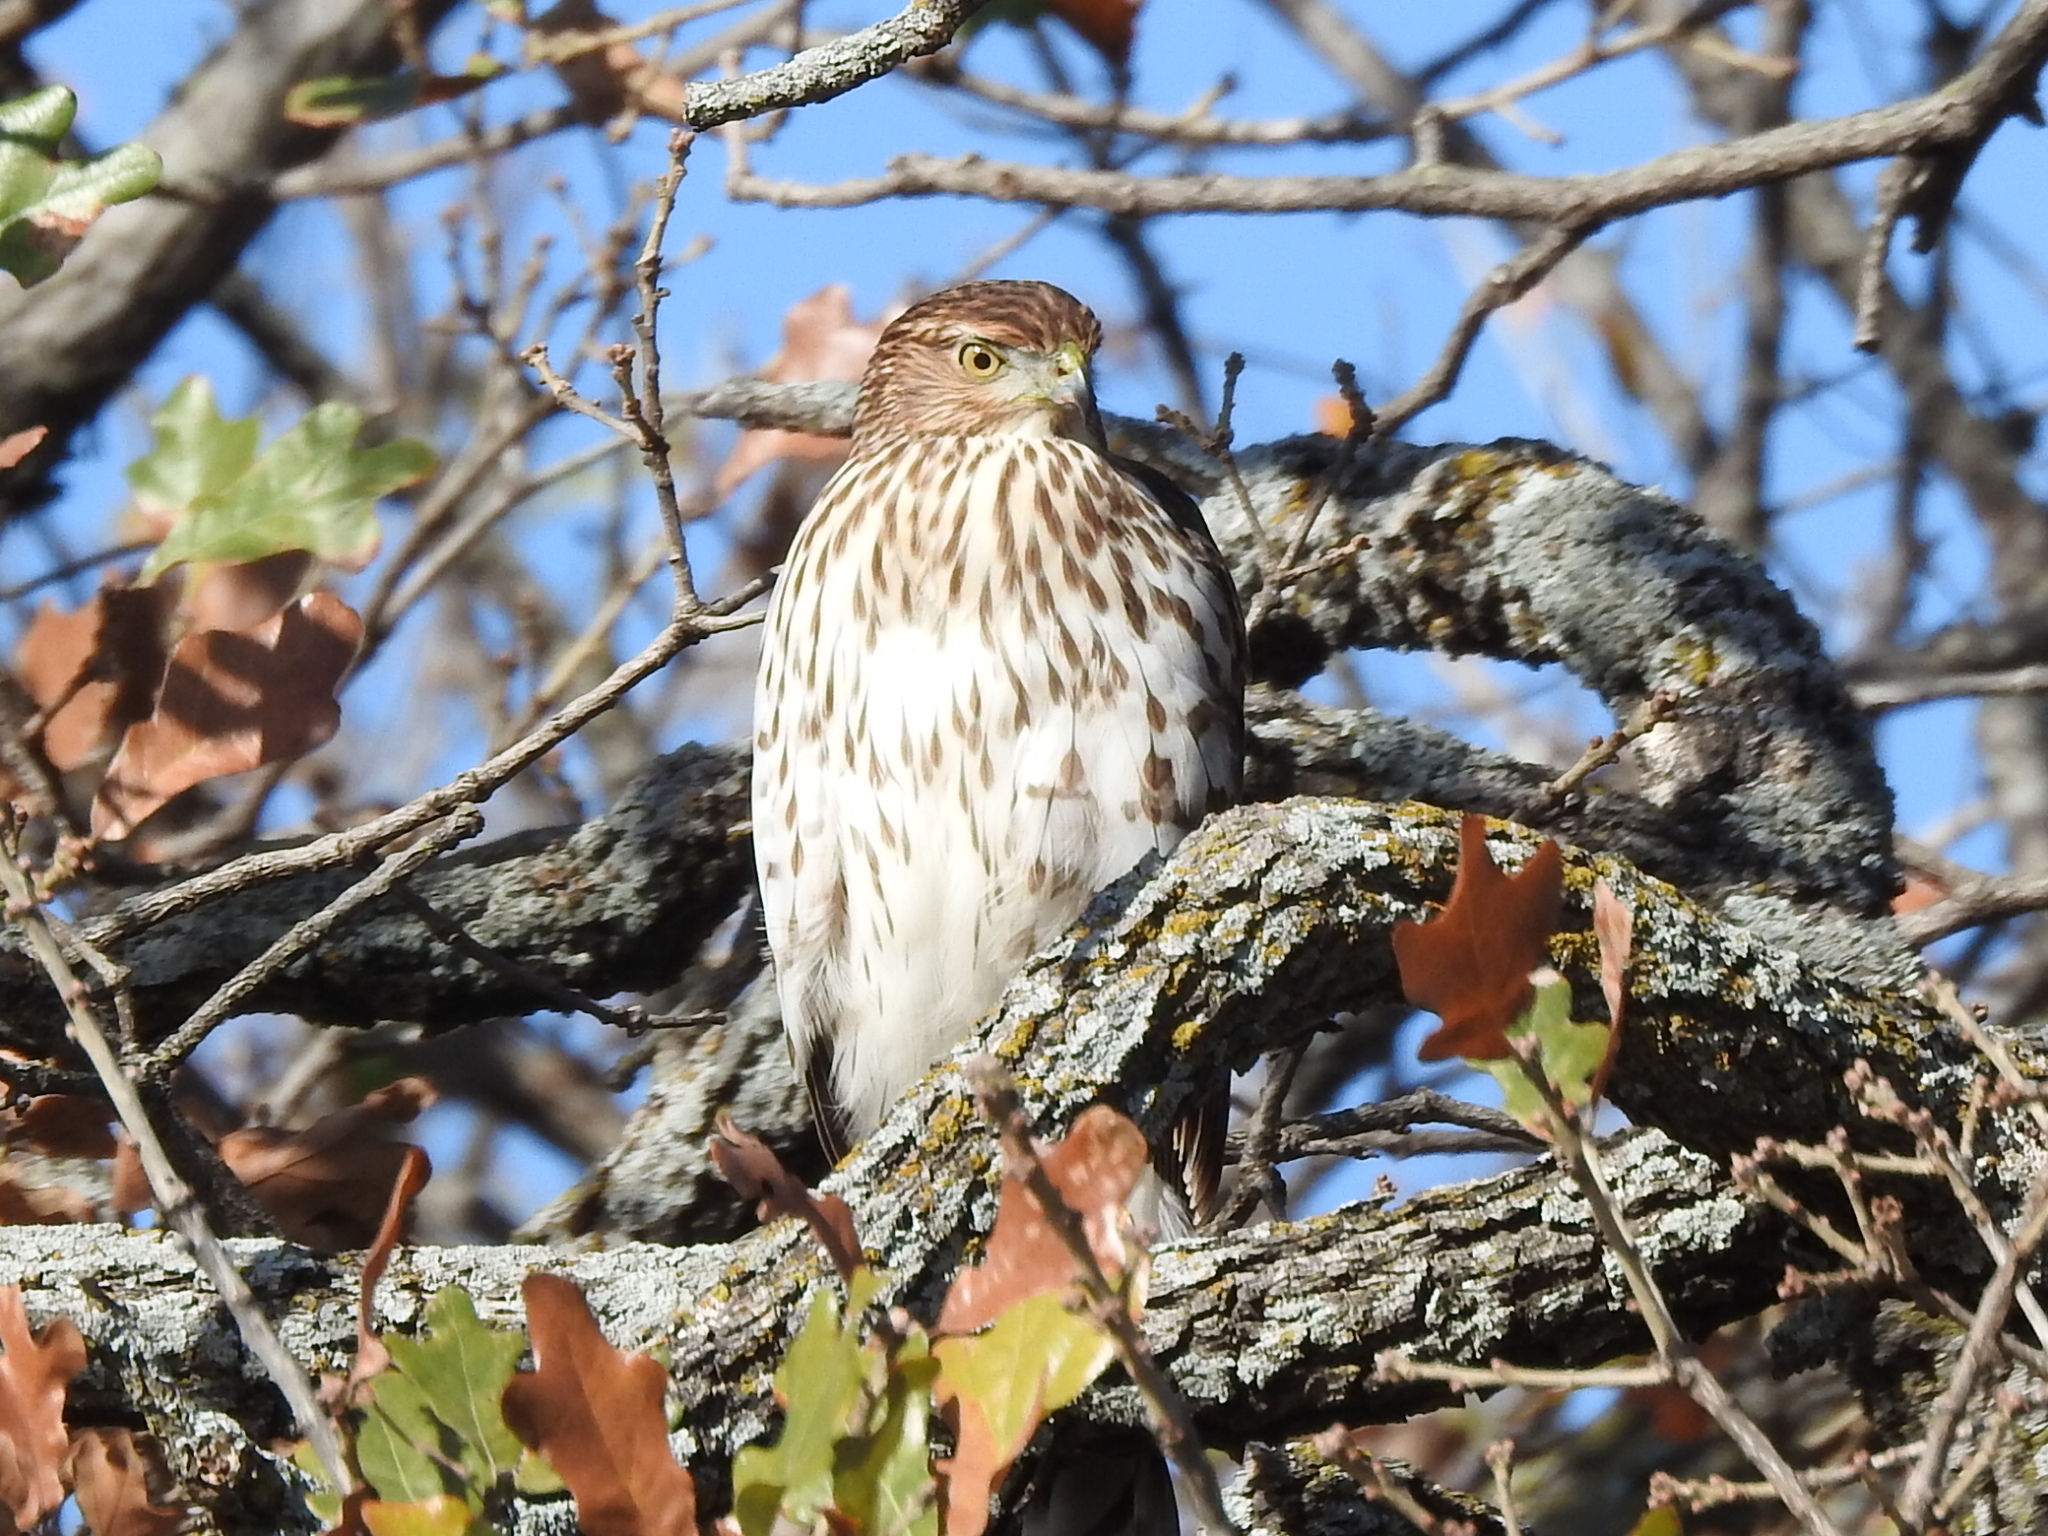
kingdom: Animalia
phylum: Chordata
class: Aves
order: Accipitriformes
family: Accipitridae
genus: Accipiter
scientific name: Accipiter cooperii
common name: Cooper's hawk
